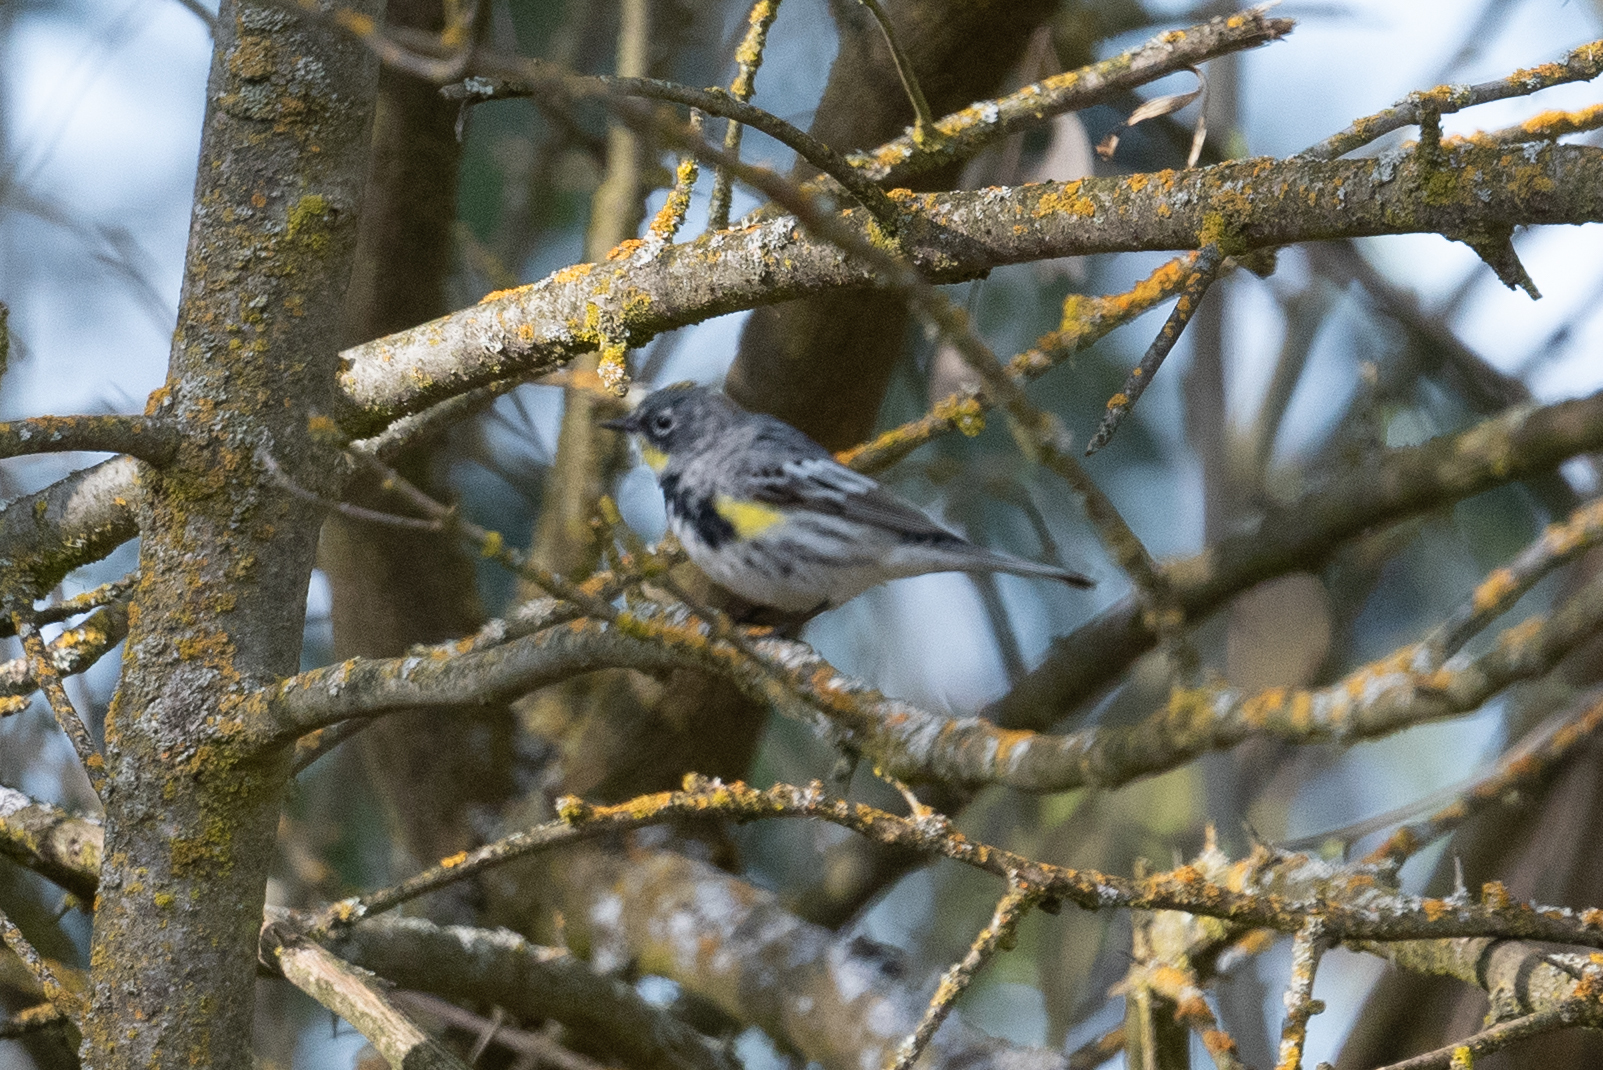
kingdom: Animalia
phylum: Chordata
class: Aves
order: Passeriformes
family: Parulidae
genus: Setophaga
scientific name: Setophaga coronata
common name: Myrtle warbler
